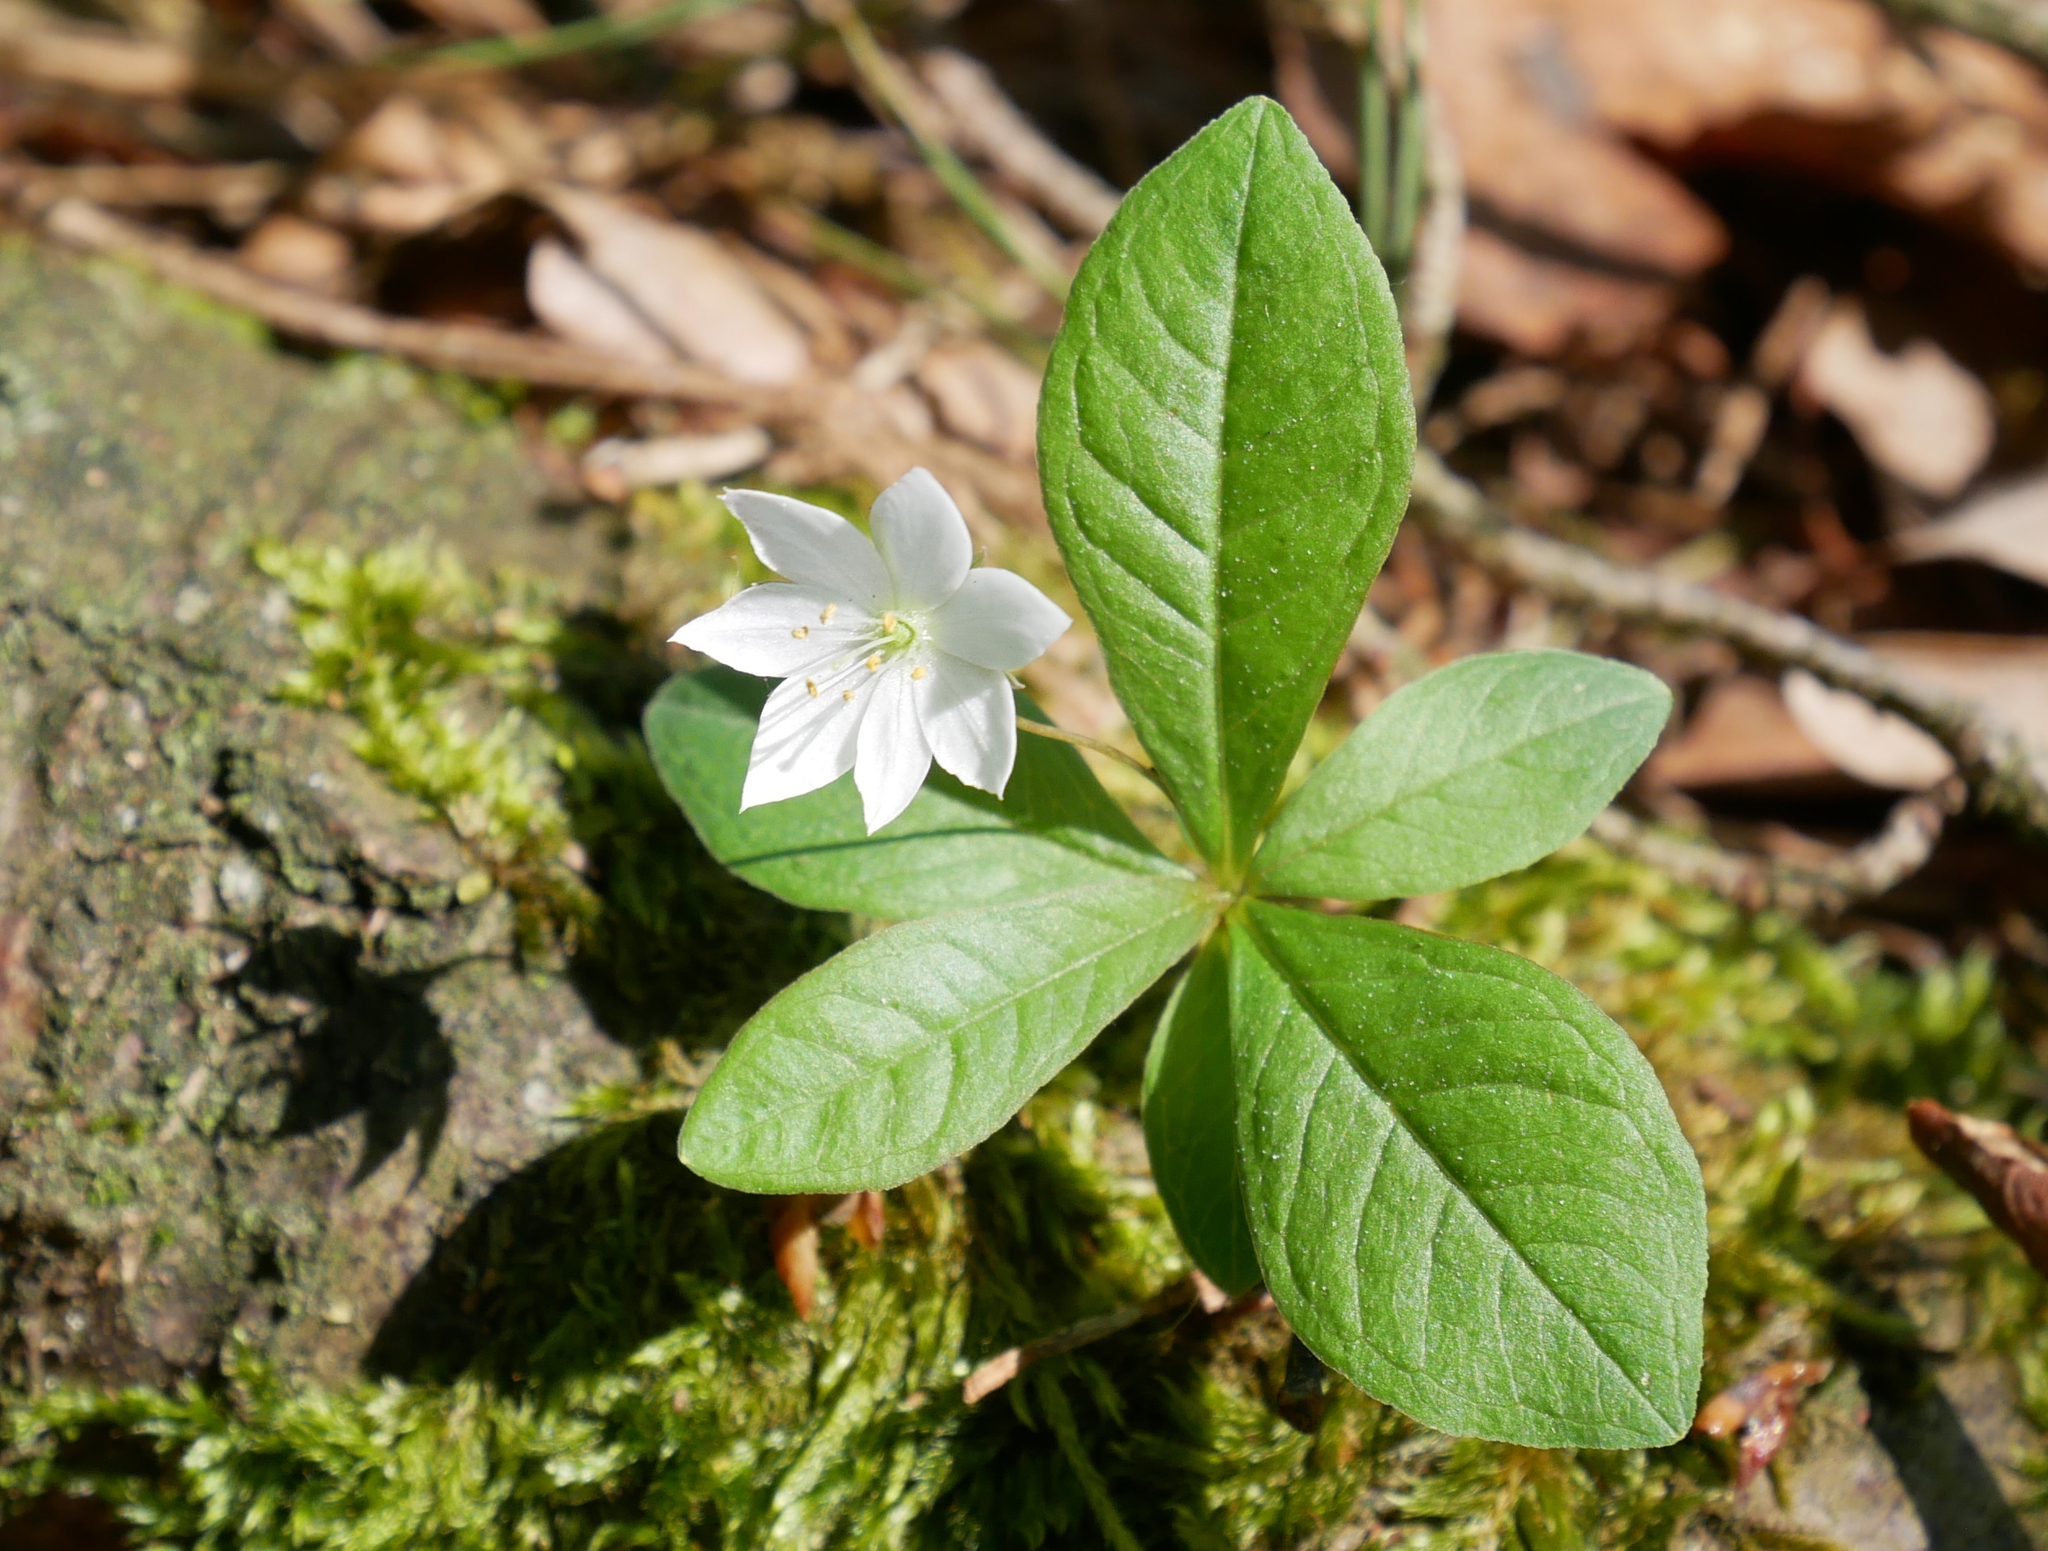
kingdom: Plantae
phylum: Tracheophyta
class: Magnoliopsida
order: Ericales
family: Primulaceae
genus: Lysimachia
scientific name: Lysimachia europaea
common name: Arctic starflower
